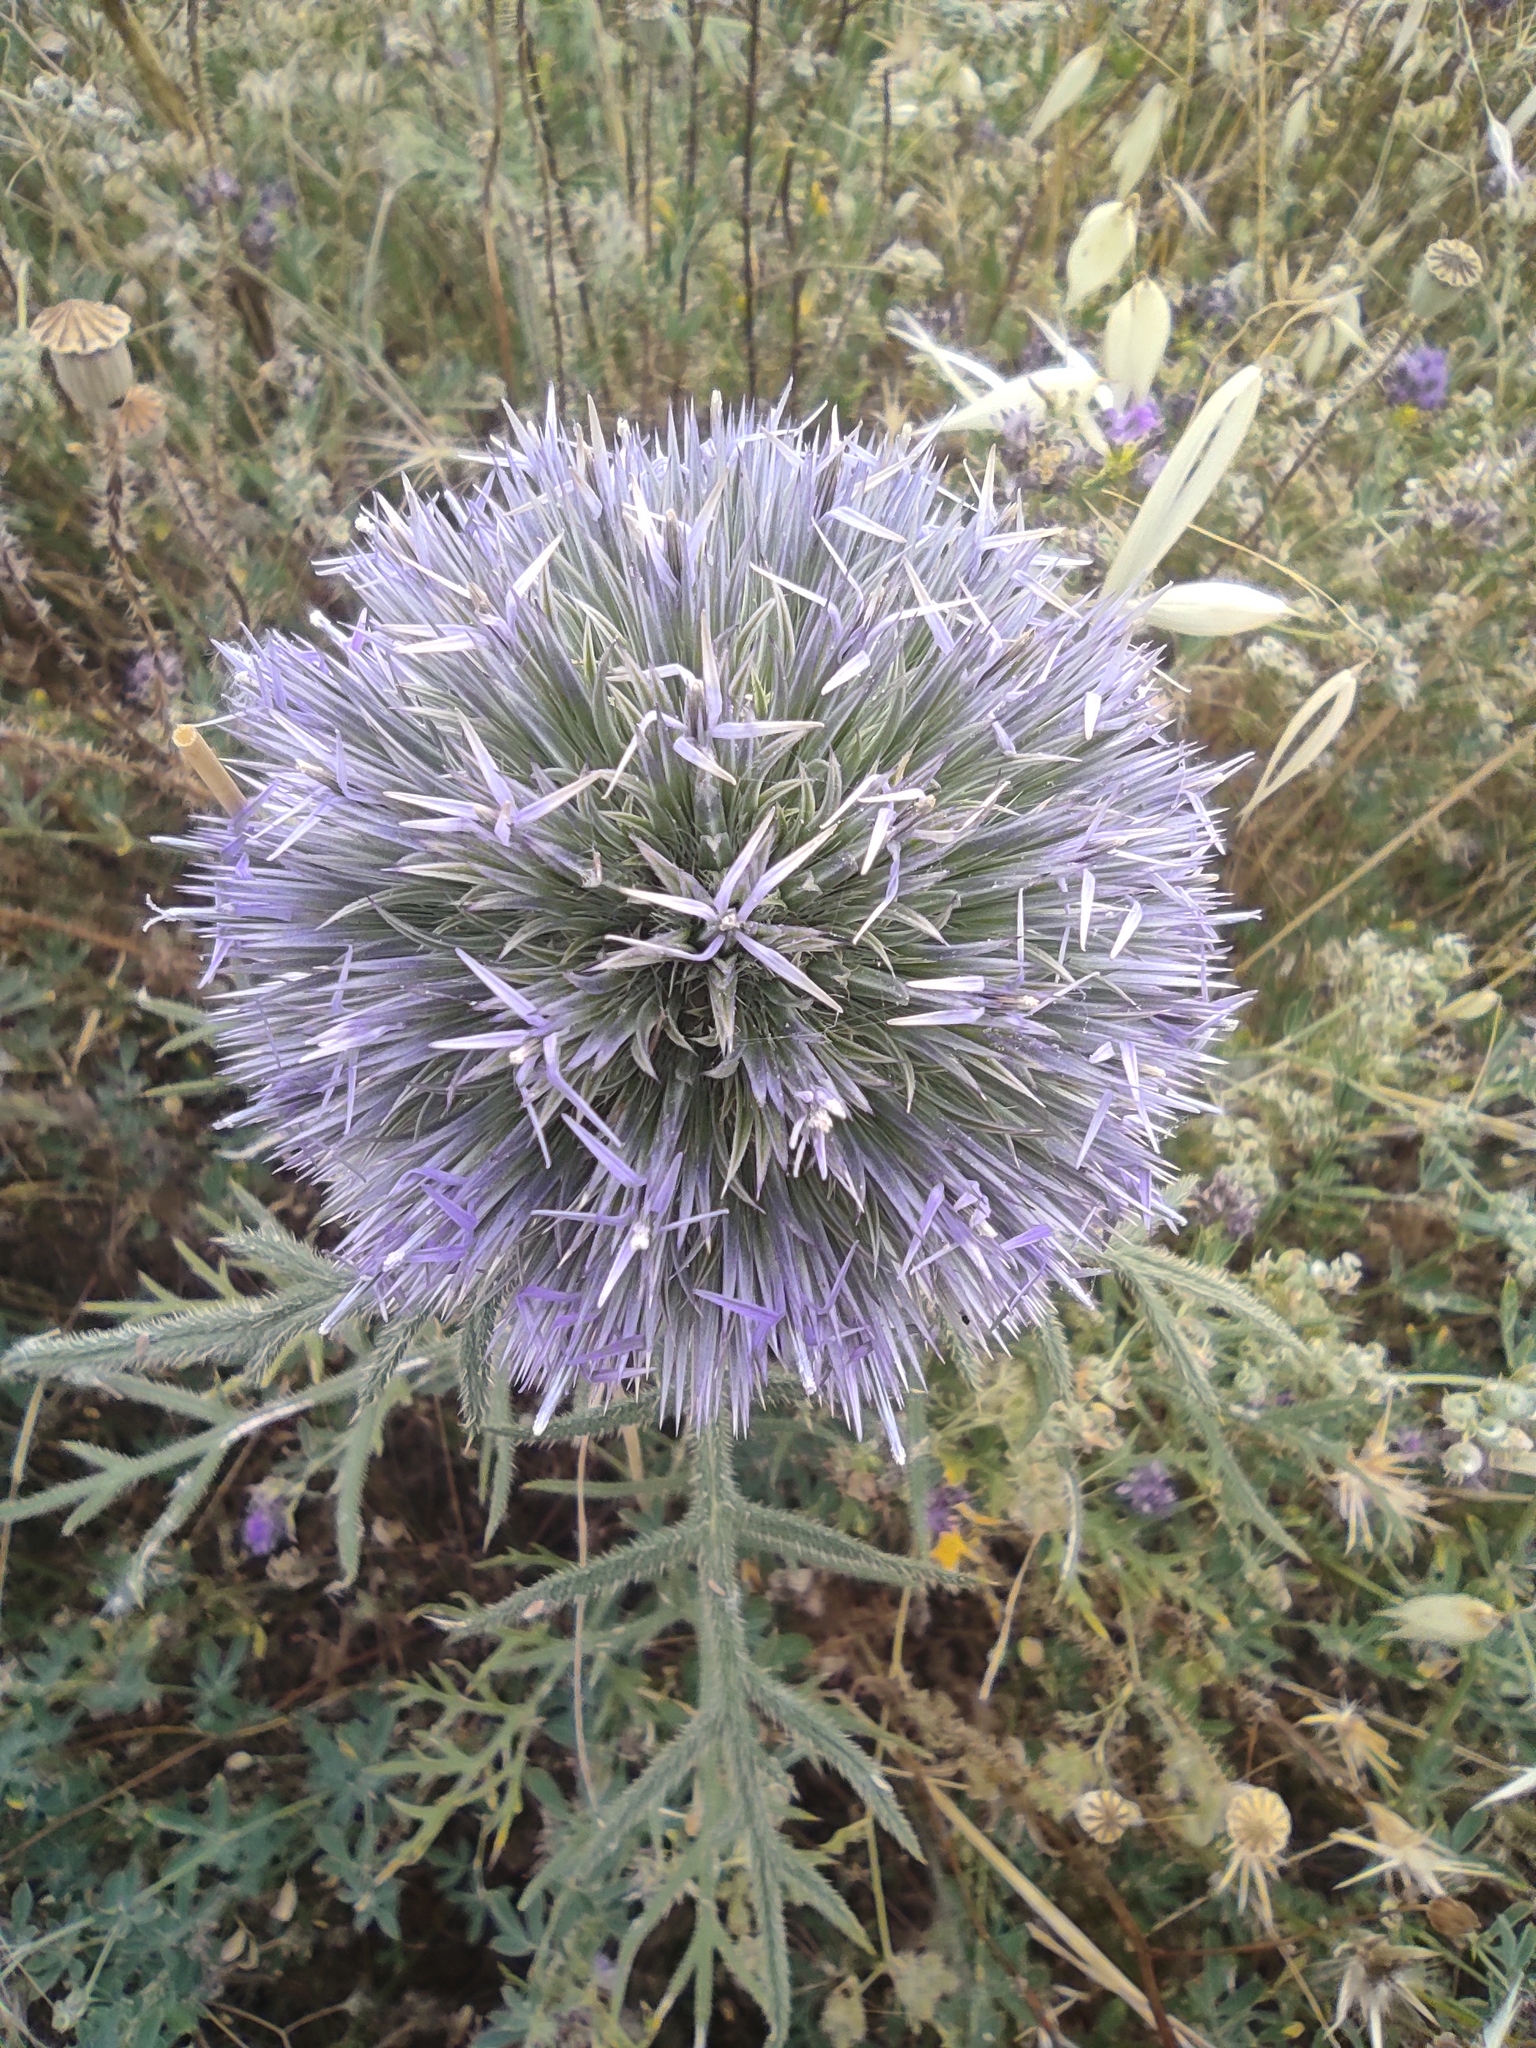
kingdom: Plantae
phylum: Tracheophyta
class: Magnoliopsida
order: Asterales
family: Asteraceae
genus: Echinops
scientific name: Echinops strigosus
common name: Rough-leaf globe thistle
